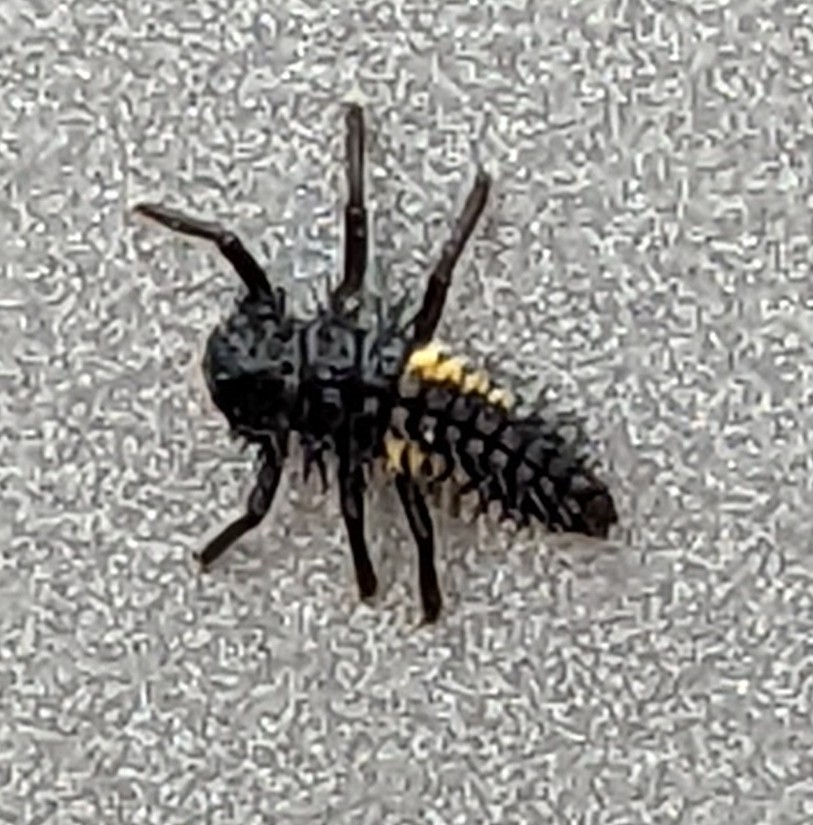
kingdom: Animalia
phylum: Arthropoda
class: Insecta
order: Coleoptera
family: Coccinellidae
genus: Harmonia
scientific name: Harmonia axyridis
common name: Harlequin ladybird
